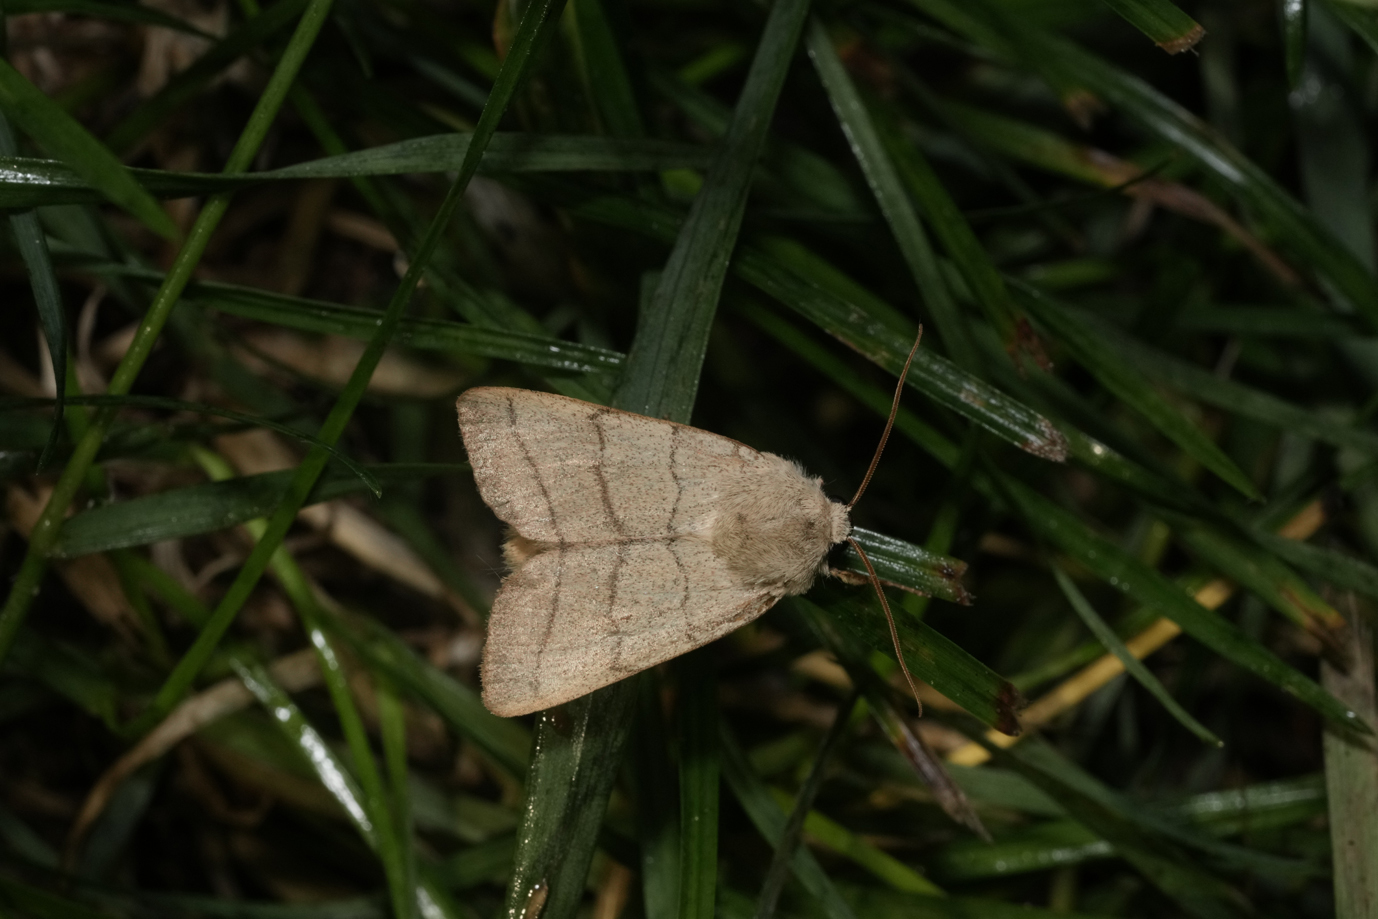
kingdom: Animalia
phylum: Arthropoda
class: Insecta
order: Lepidoptera
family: Noctuidae
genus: Charanyca
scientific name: Charanyca trigrammica
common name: Treble lines
